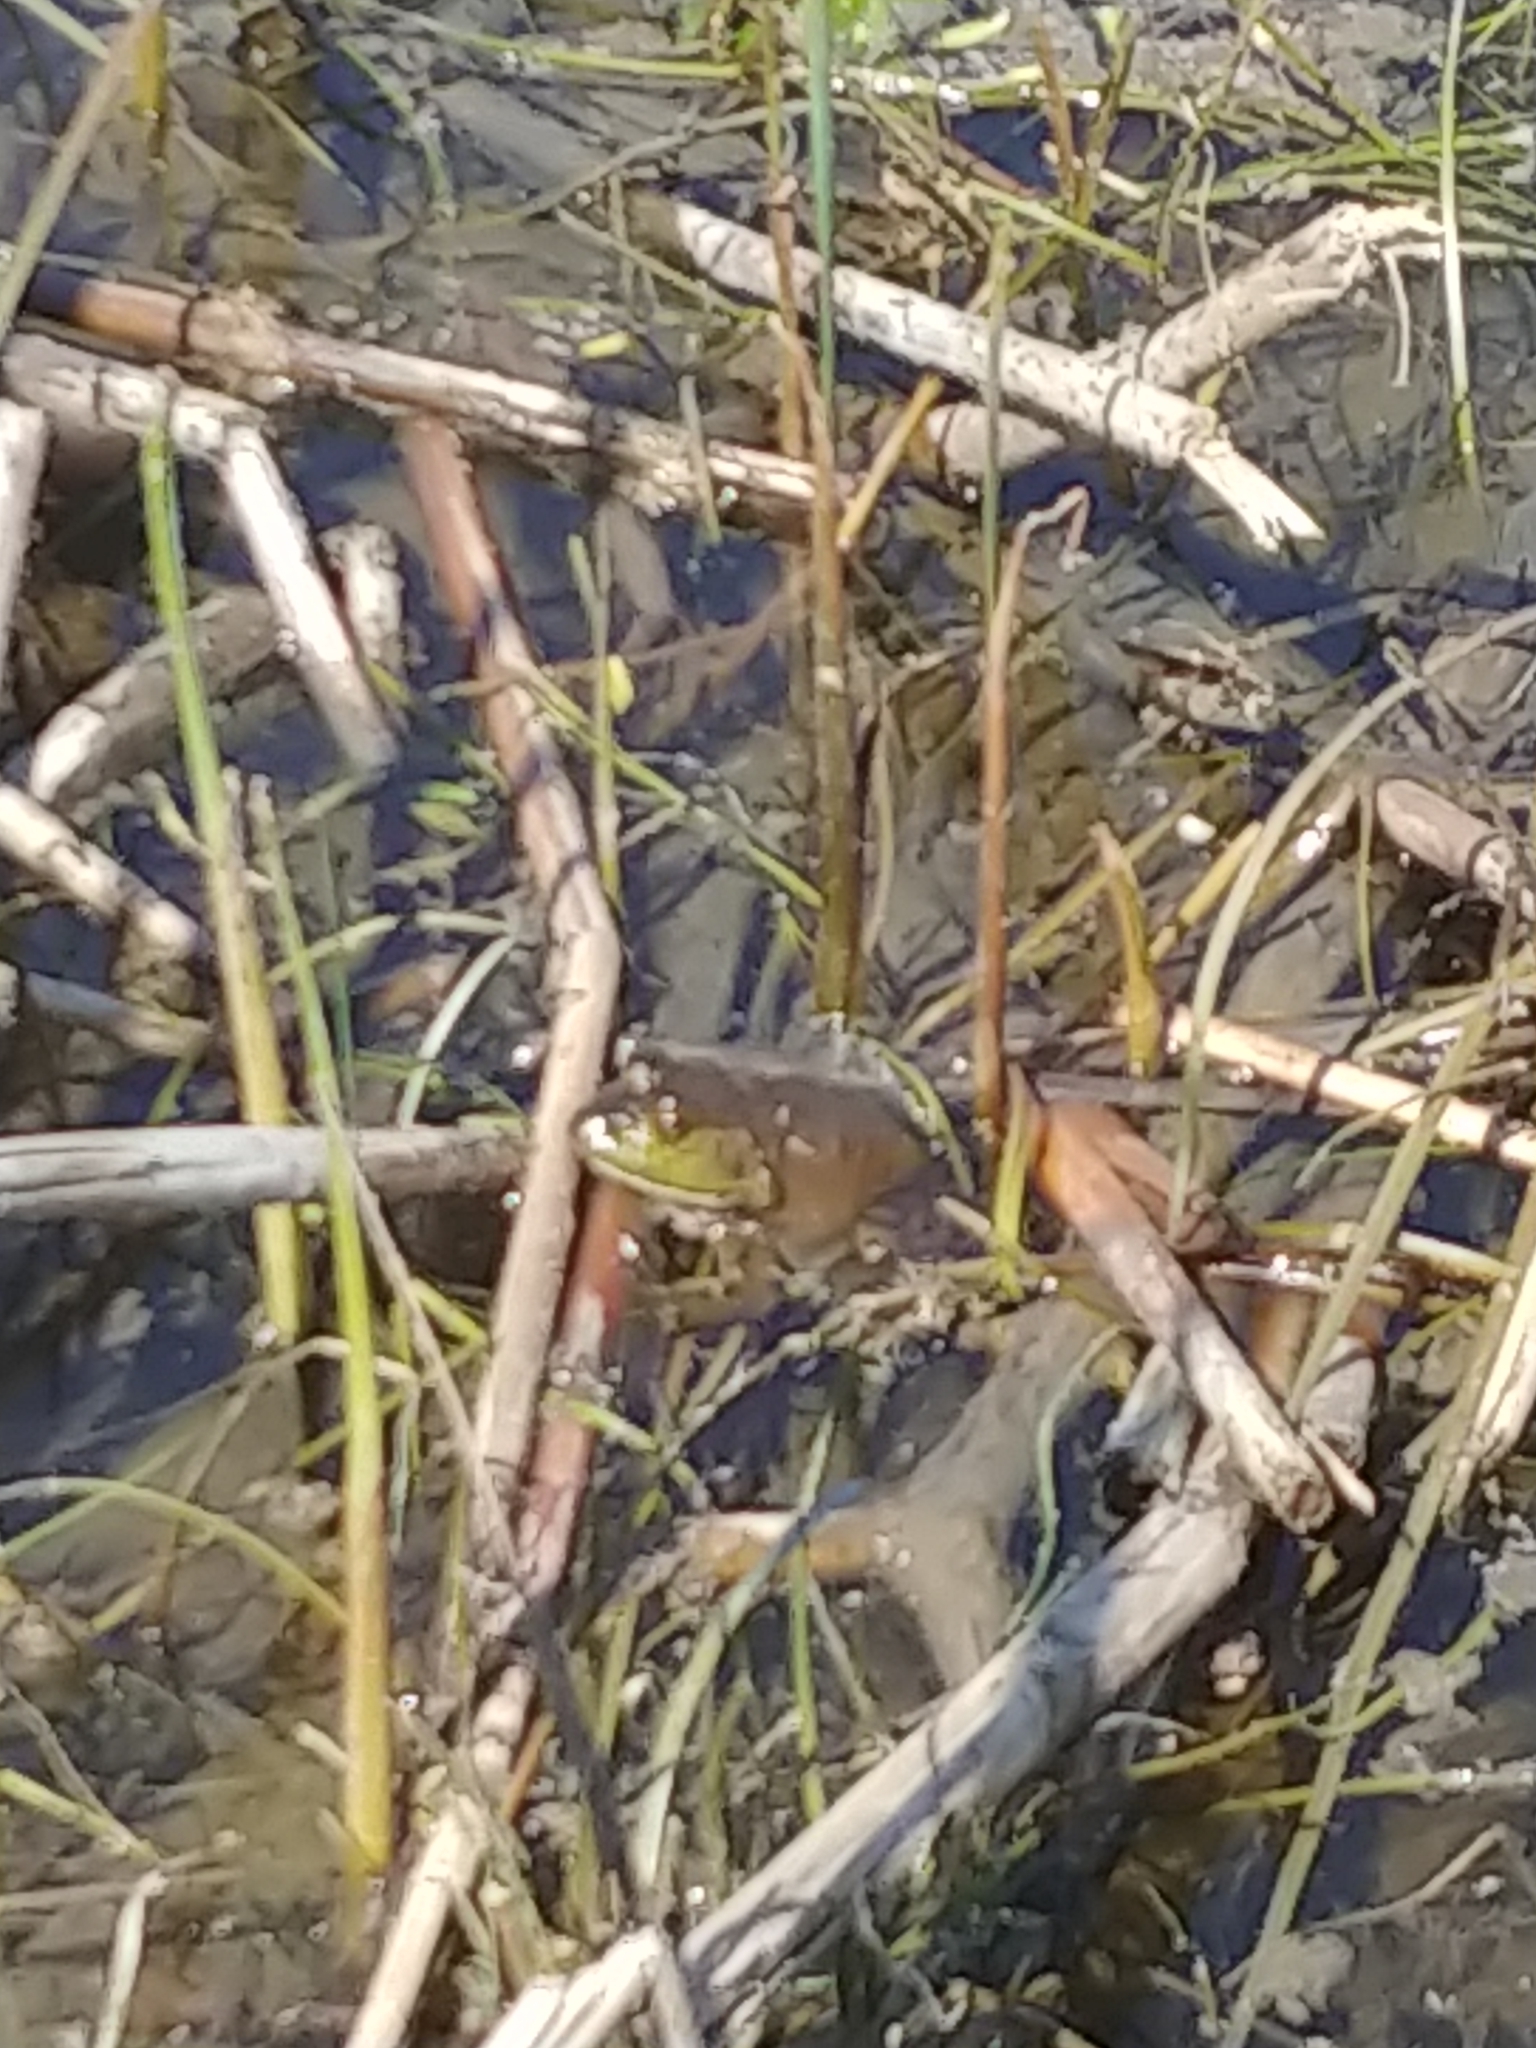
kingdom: Animalia
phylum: Chordata
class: Amphibia
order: Anura
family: Ranidae
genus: Lithobates
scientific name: Lithobates catesbeianus
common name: American bullfrog
